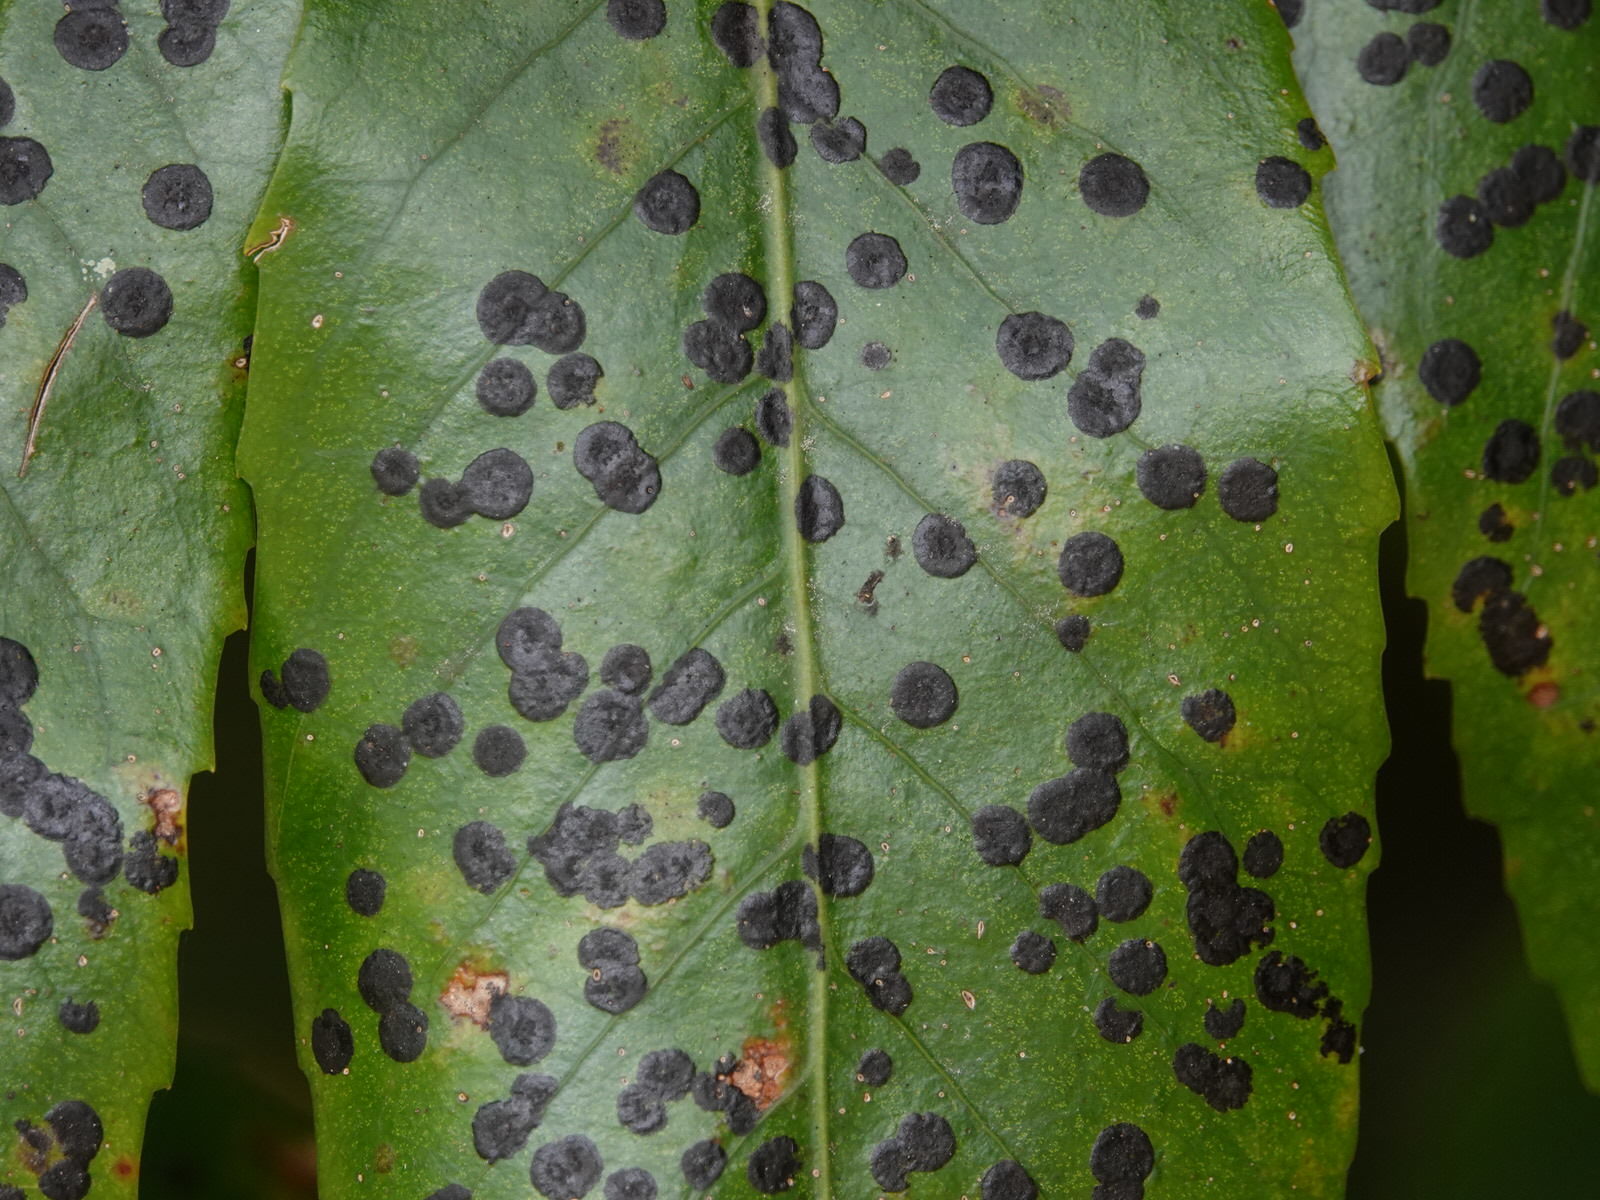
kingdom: Plantae
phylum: Tracheophyta
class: Magnoliopsida
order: Apiales
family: Araliaceae
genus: Neopanax
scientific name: Neopanax arboreus
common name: Five-fingers
